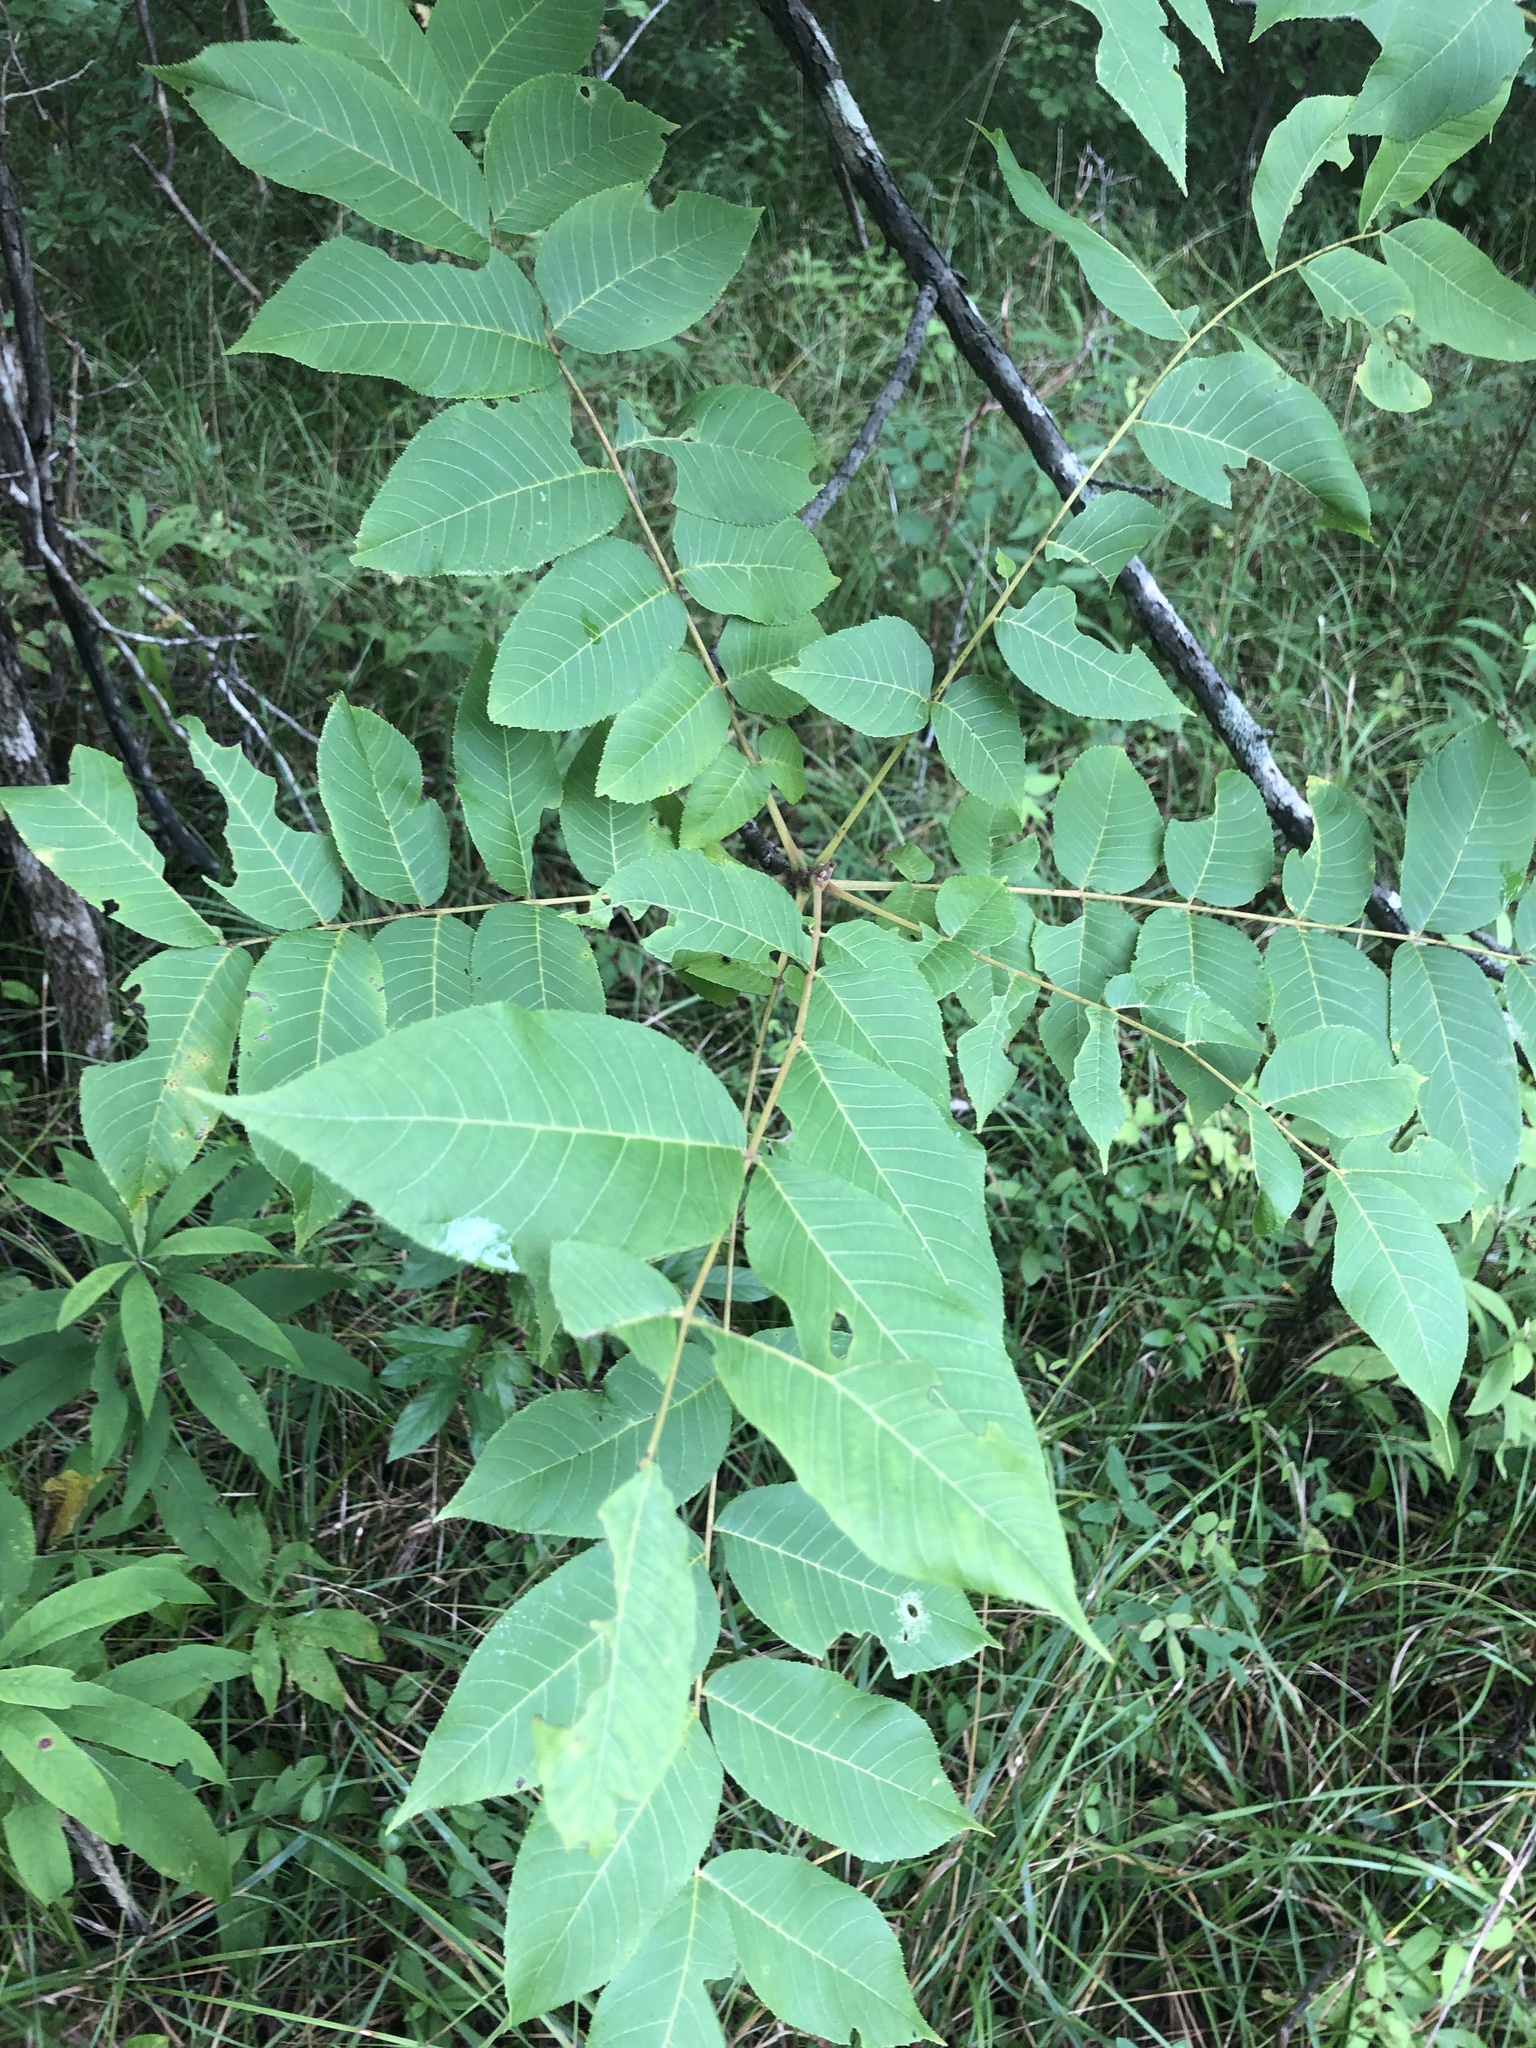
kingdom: Plantae
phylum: Tracheophyta
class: Magnoliopsida
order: Fagales
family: Juglandaceae
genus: Juglans
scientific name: Juglans nigra
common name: Black walnut
